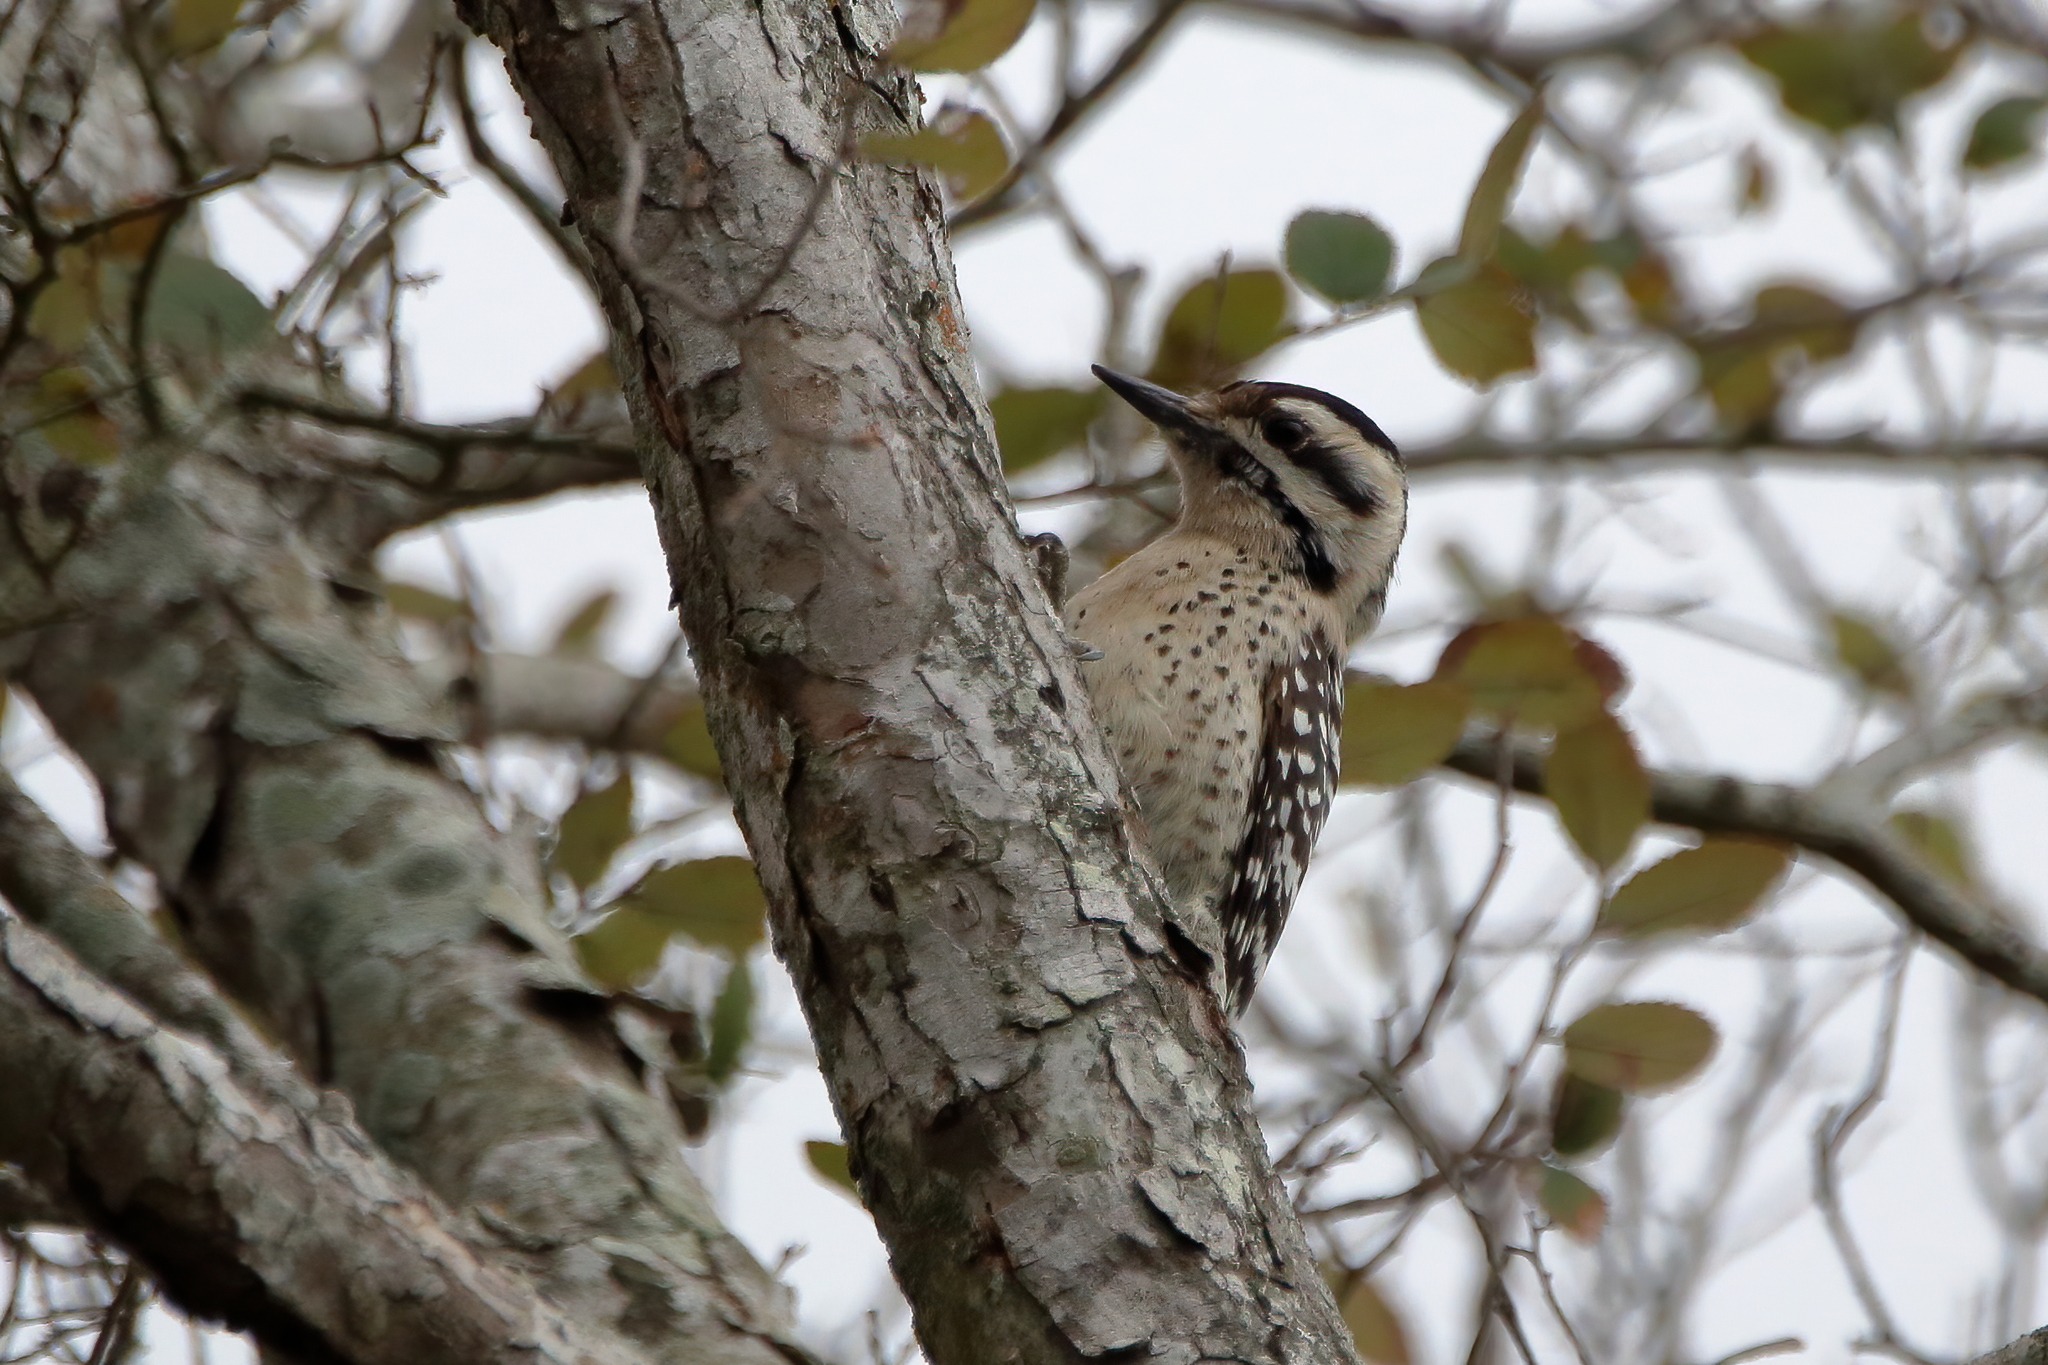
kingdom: Animalia
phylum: Chordata
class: Aves
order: Piciformes
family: Picidae
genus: Dryobates
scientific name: Dryobates scalaris
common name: Ladder-backed woodpecker
